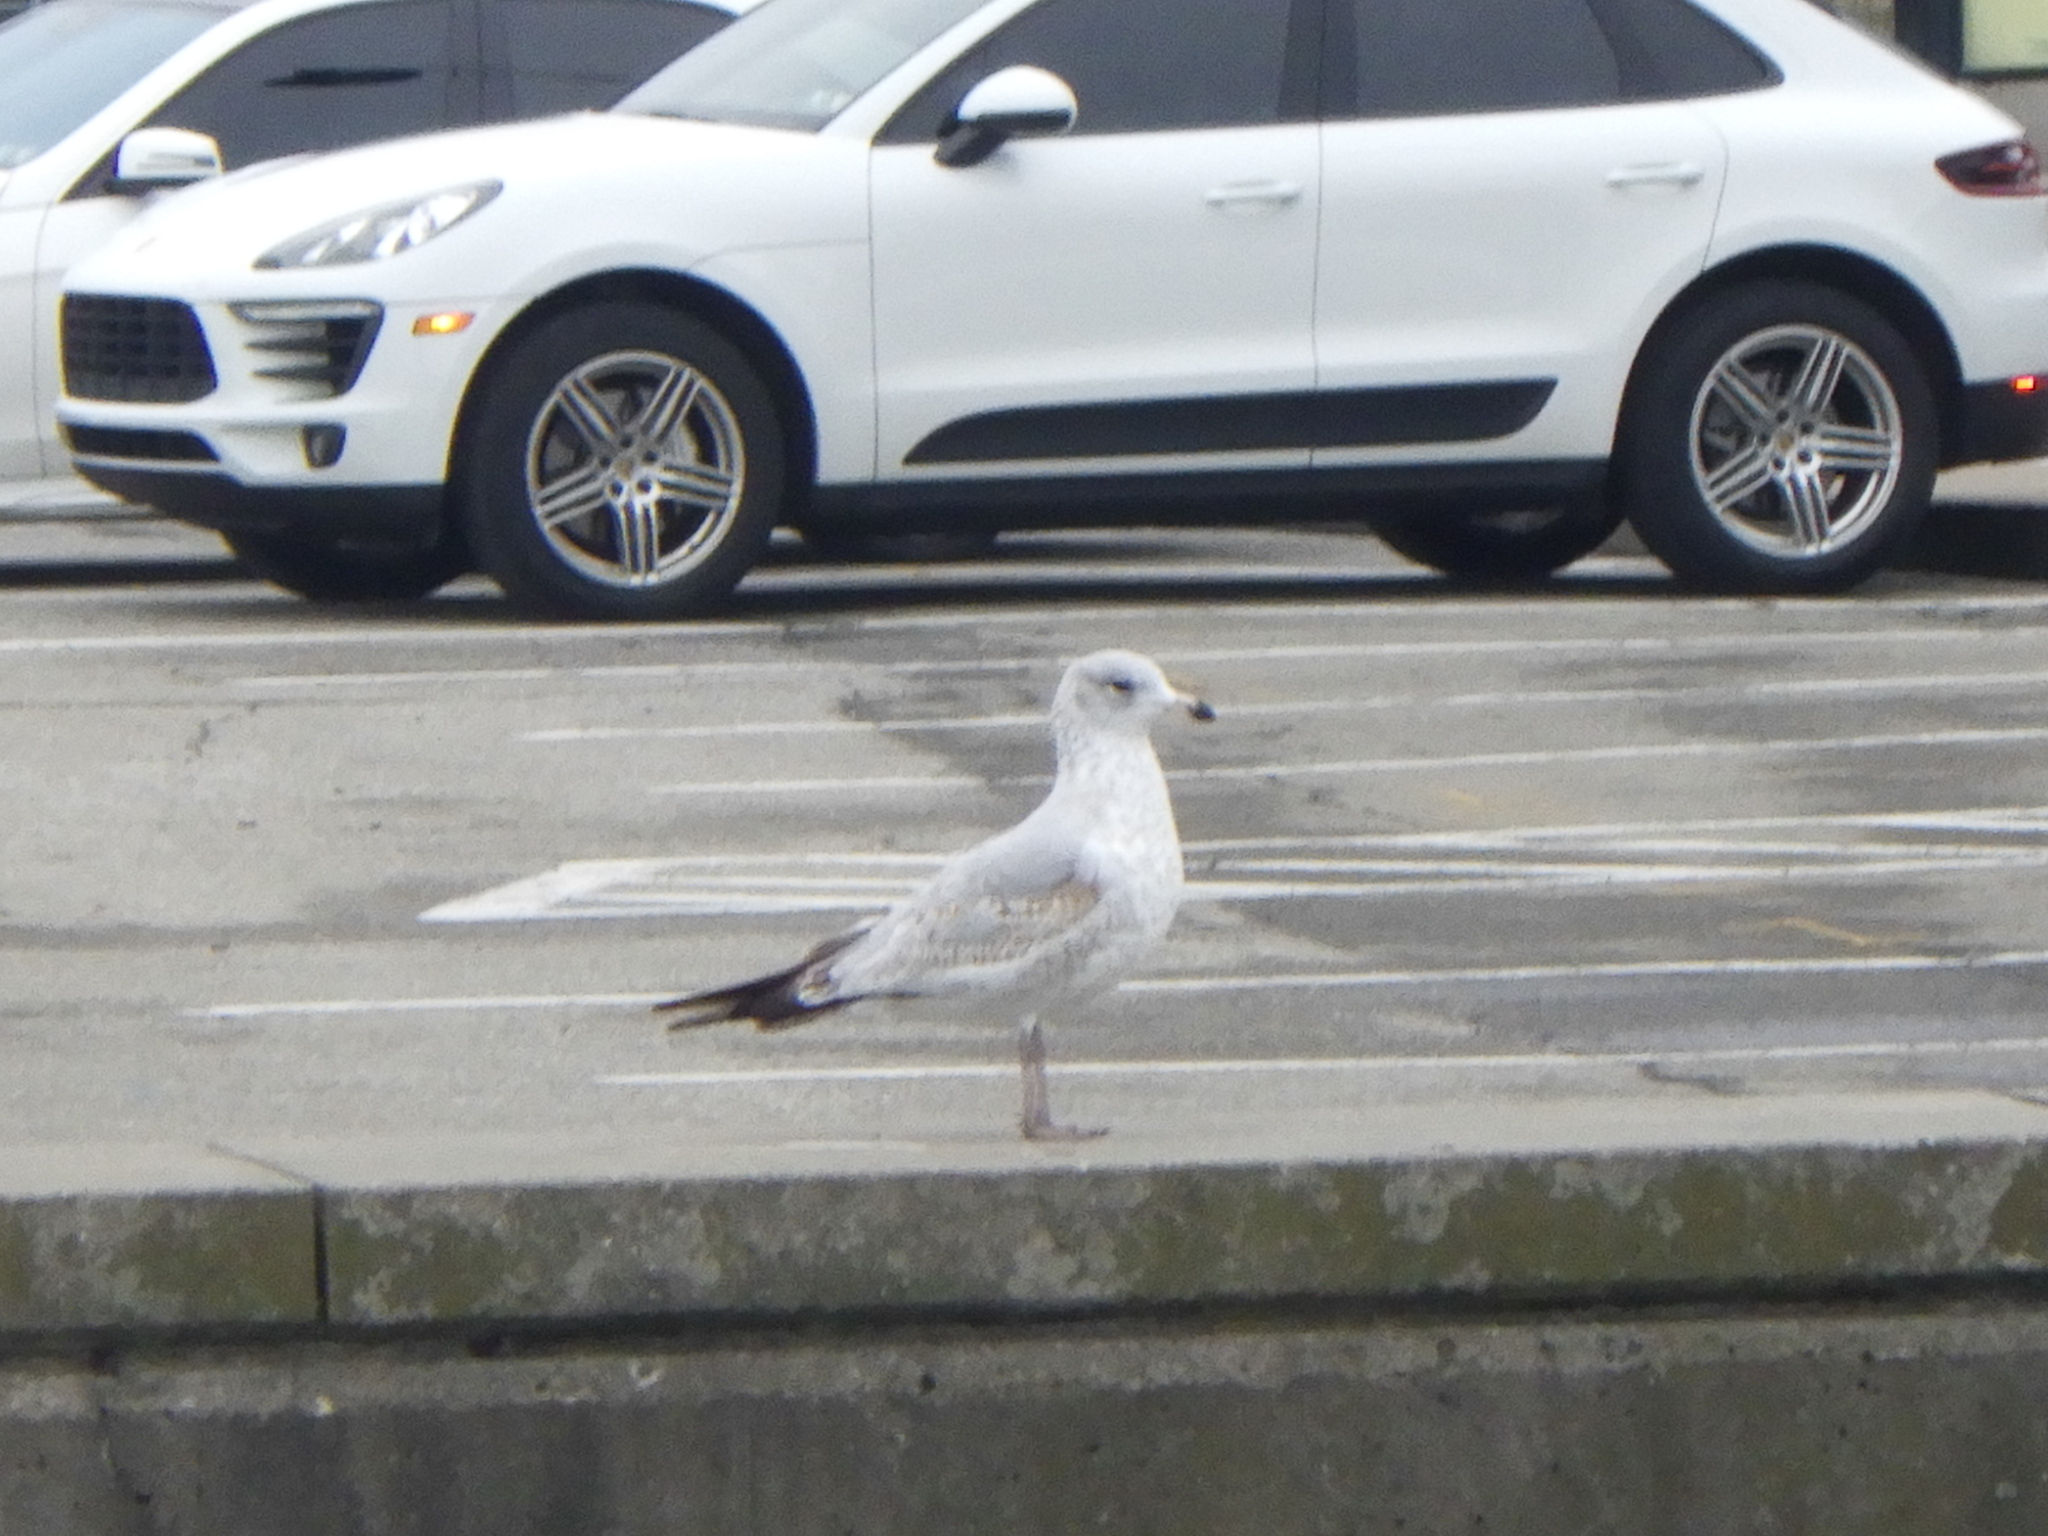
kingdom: Animalia
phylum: Chordata
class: Aves
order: Charadriiformes
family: Laridae
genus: Larus
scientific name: Larus delawarensis
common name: Ring-billed gull
